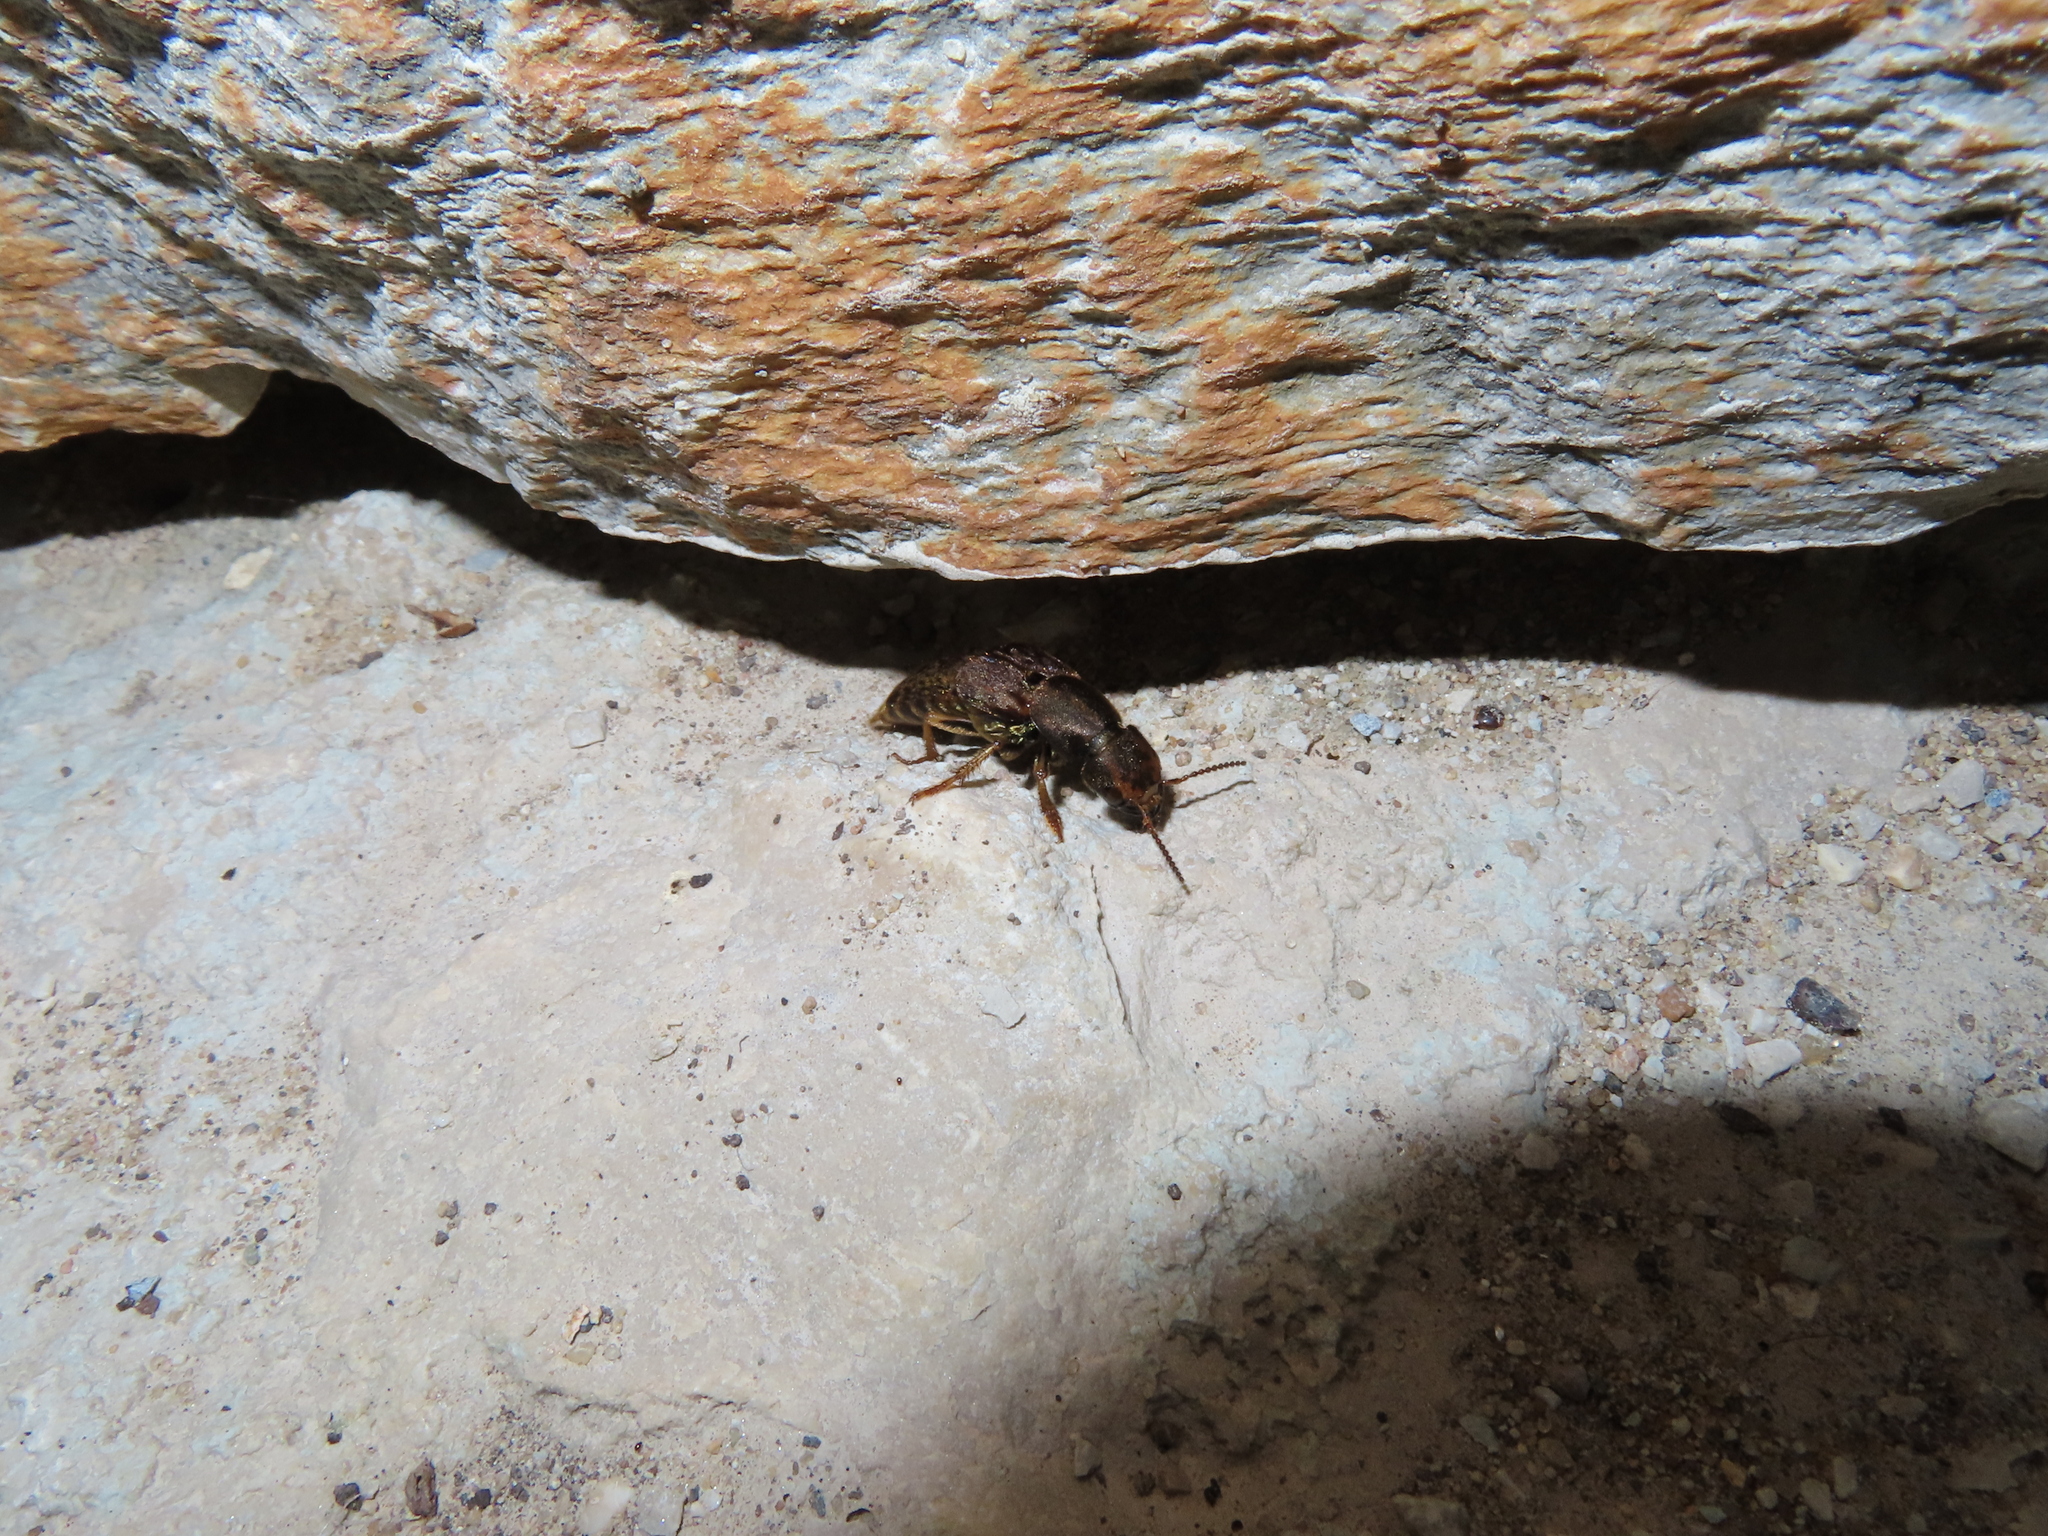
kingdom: Animalia
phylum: Arthropoda
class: Insecta
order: Coleoptera
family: Staphylinidae
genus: Platydracus
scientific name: Platydracus maculosus
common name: Brown rove beetle
